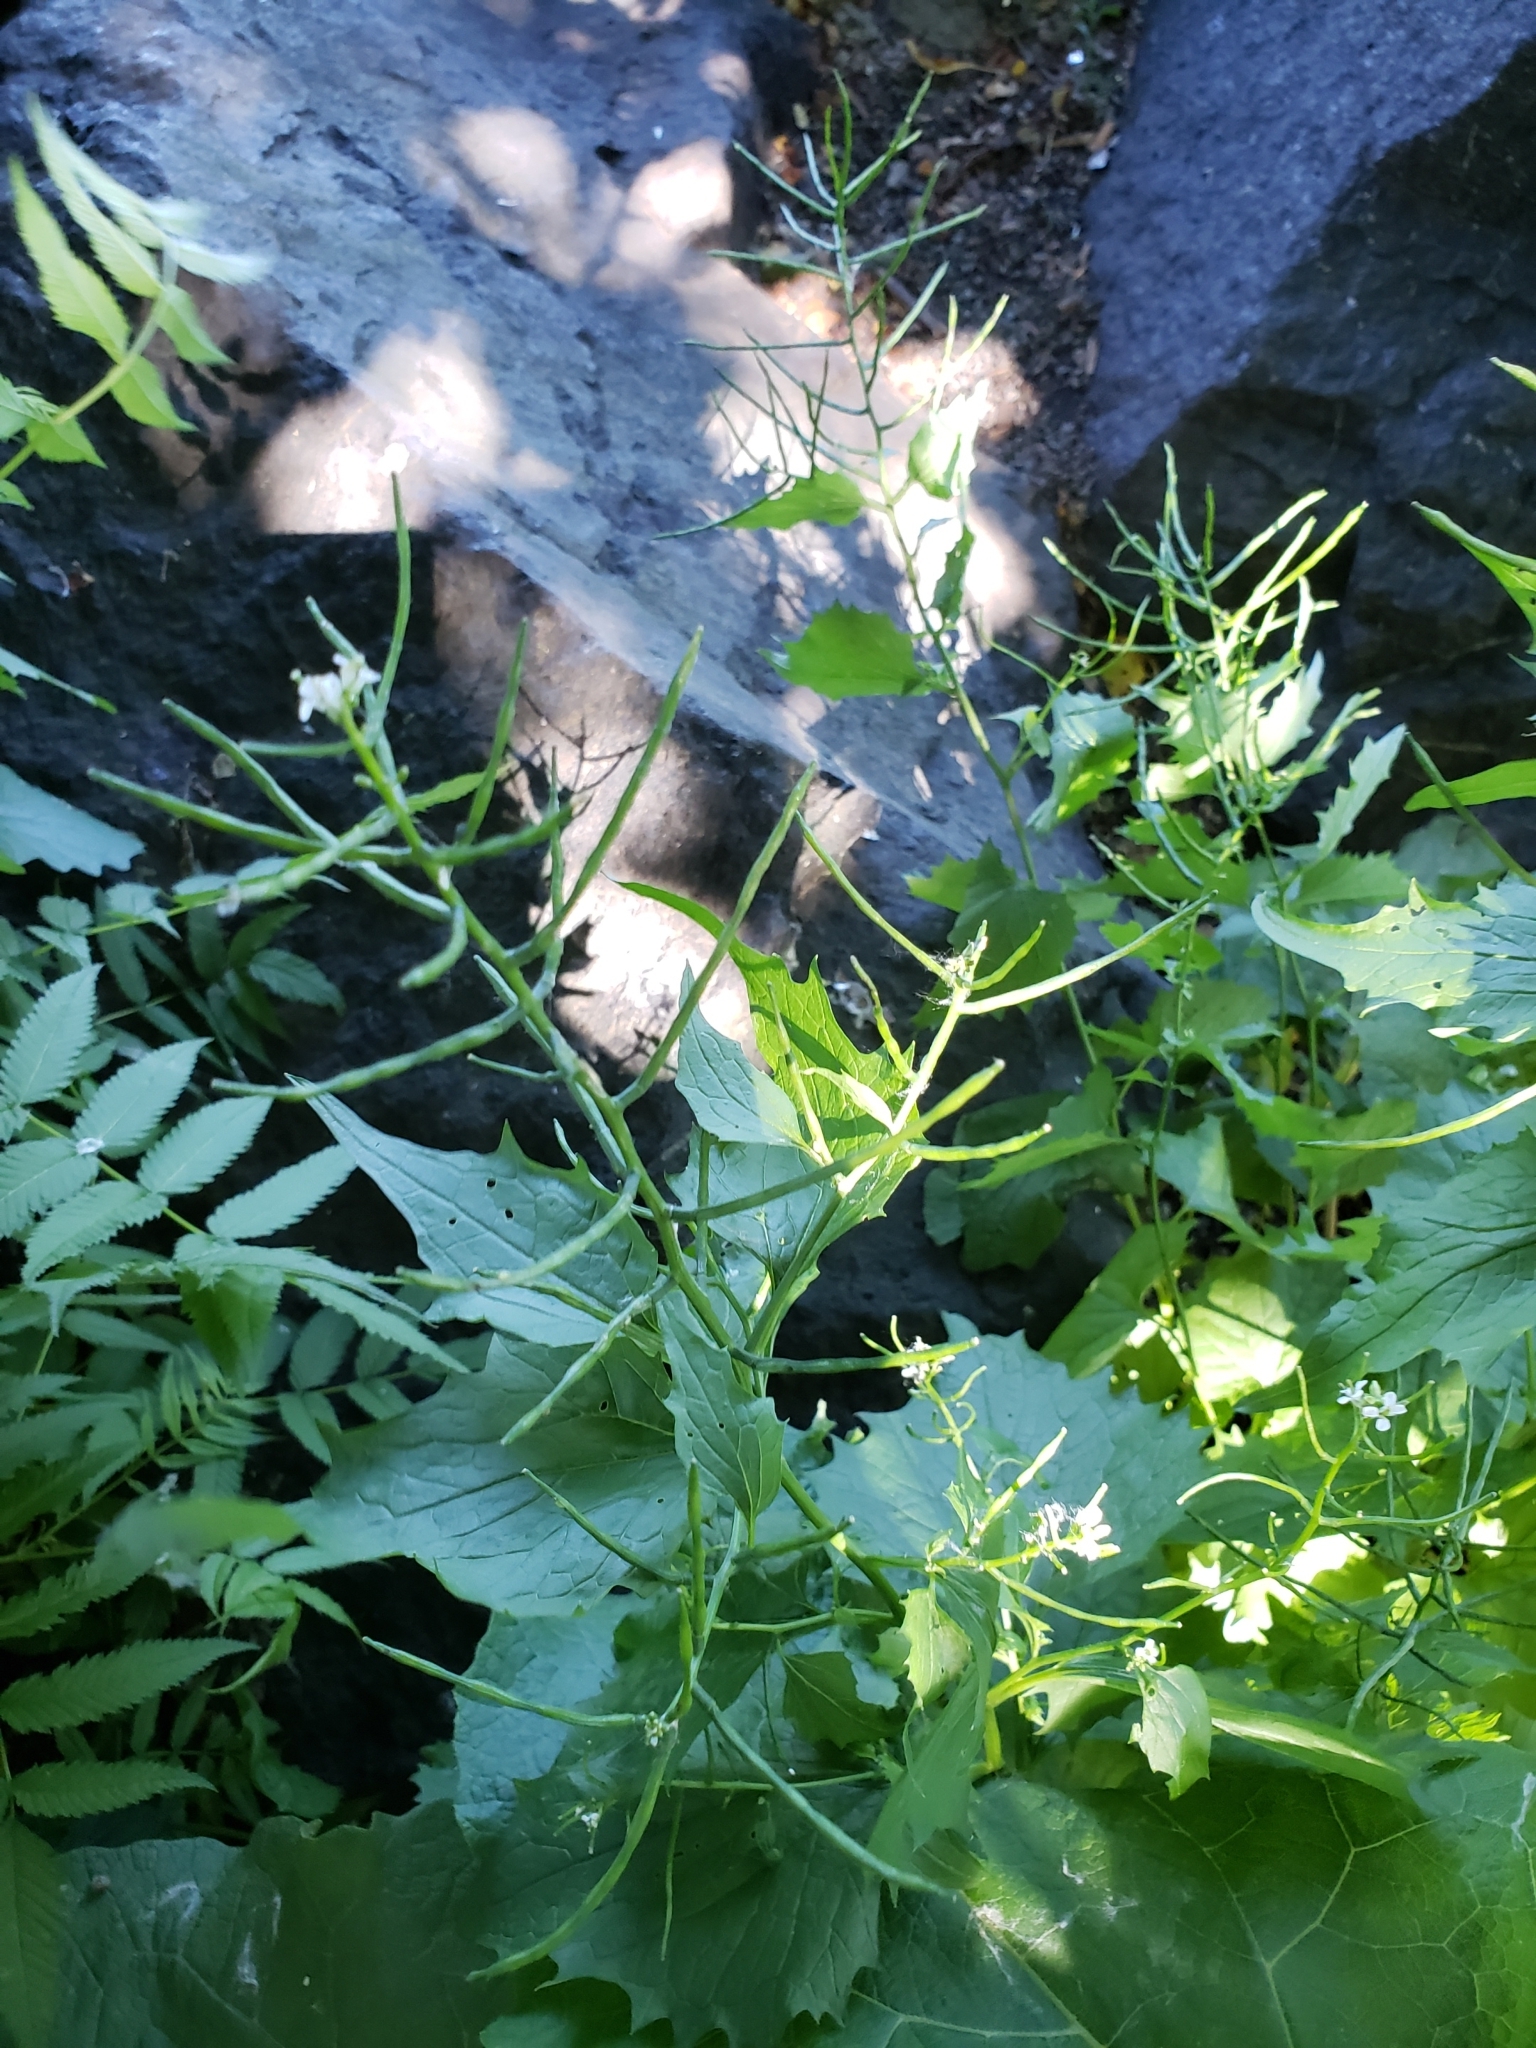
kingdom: Plantae
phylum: Tracheophyta
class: Magnoliopsida
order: Brassicales
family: Brassicaceae
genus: Alliaria
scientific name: Alliaria petiolata
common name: Garlic mustard
